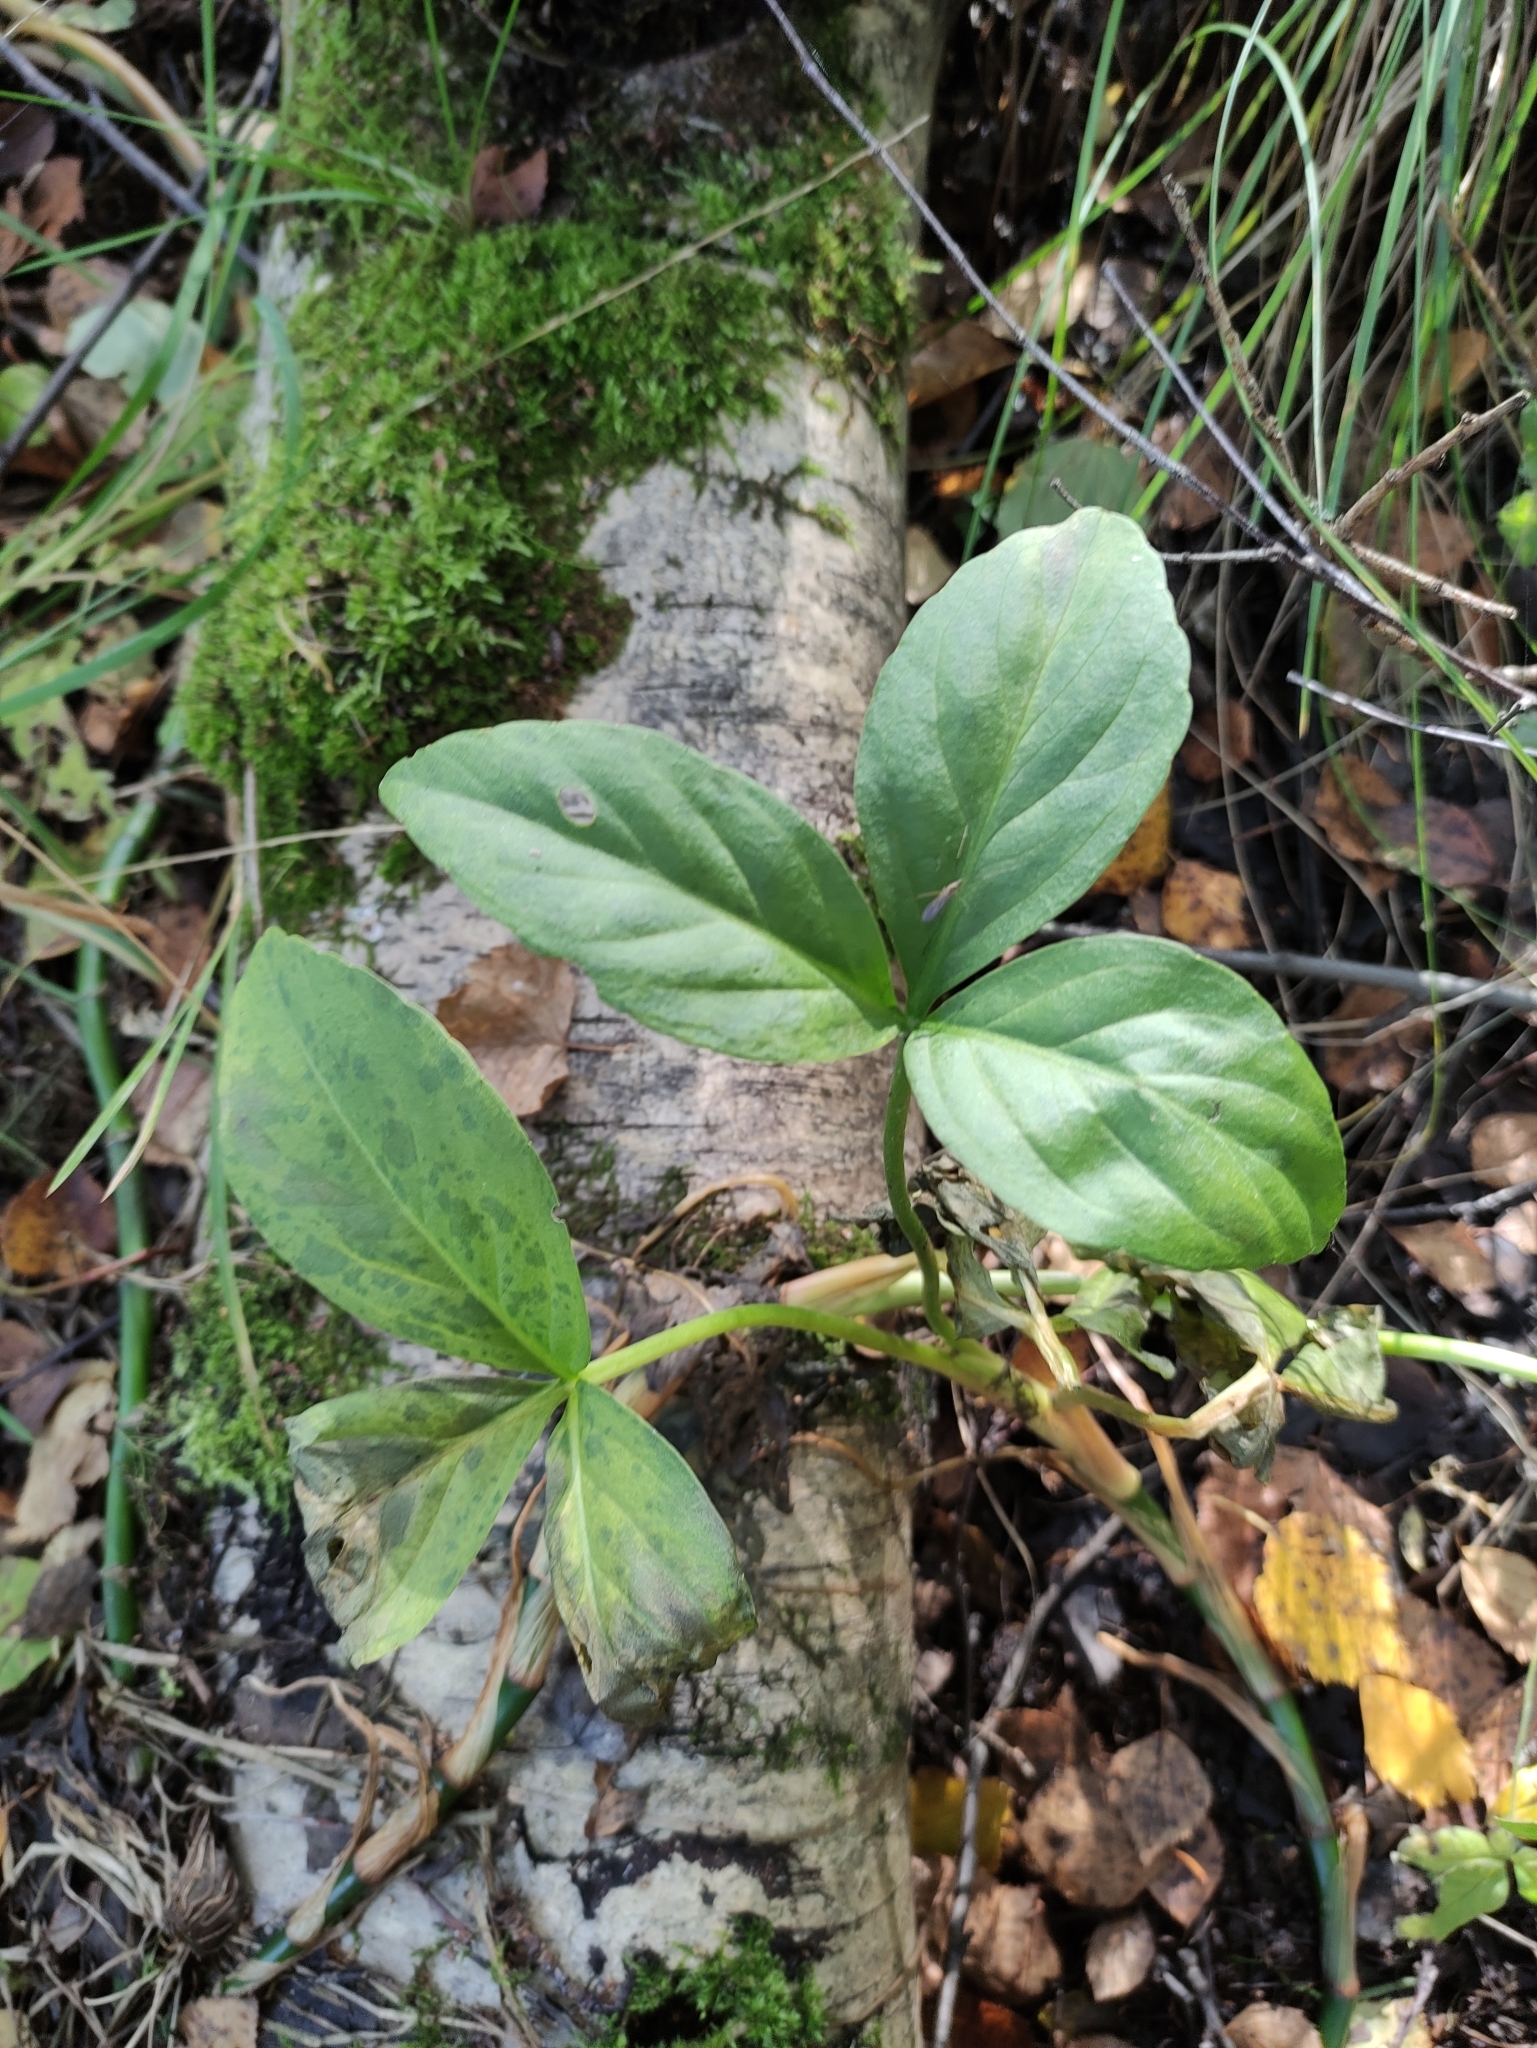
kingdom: Plantae
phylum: Tracheophyta
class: Magnoliopsida
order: Asterales
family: Menyanthaceae
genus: Menyanthes
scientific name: Menyanthes trifoliata
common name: Bogbean
